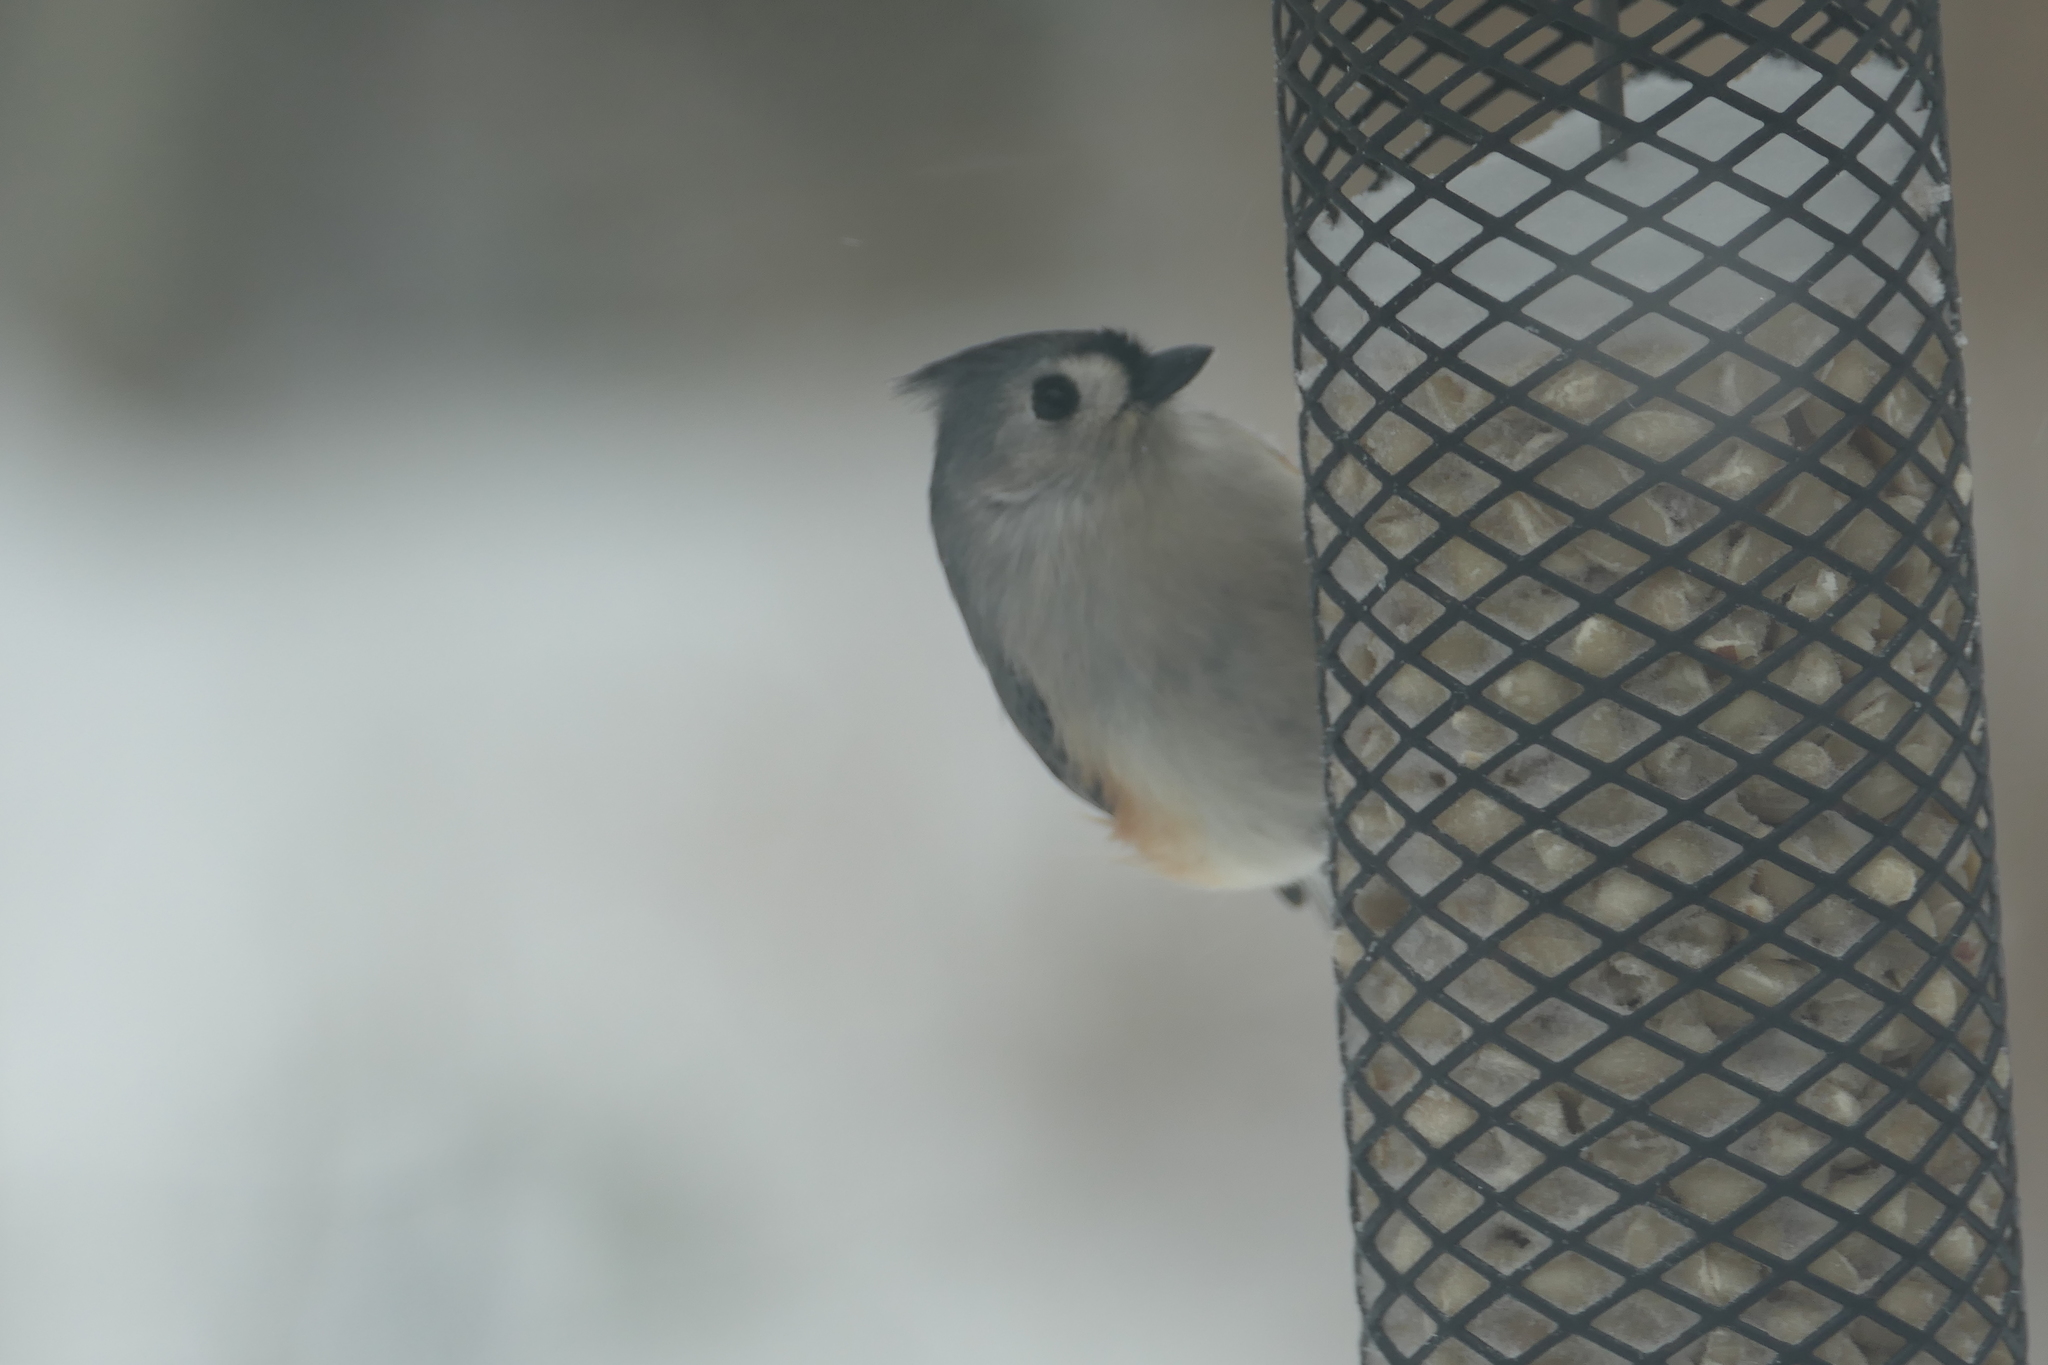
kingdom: Animalia
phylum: Chordata
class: Aves
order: Passeriformes
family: Paridae
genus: Baeolophus
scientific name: Baeolophus bicolor
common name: Tufted titmouse
